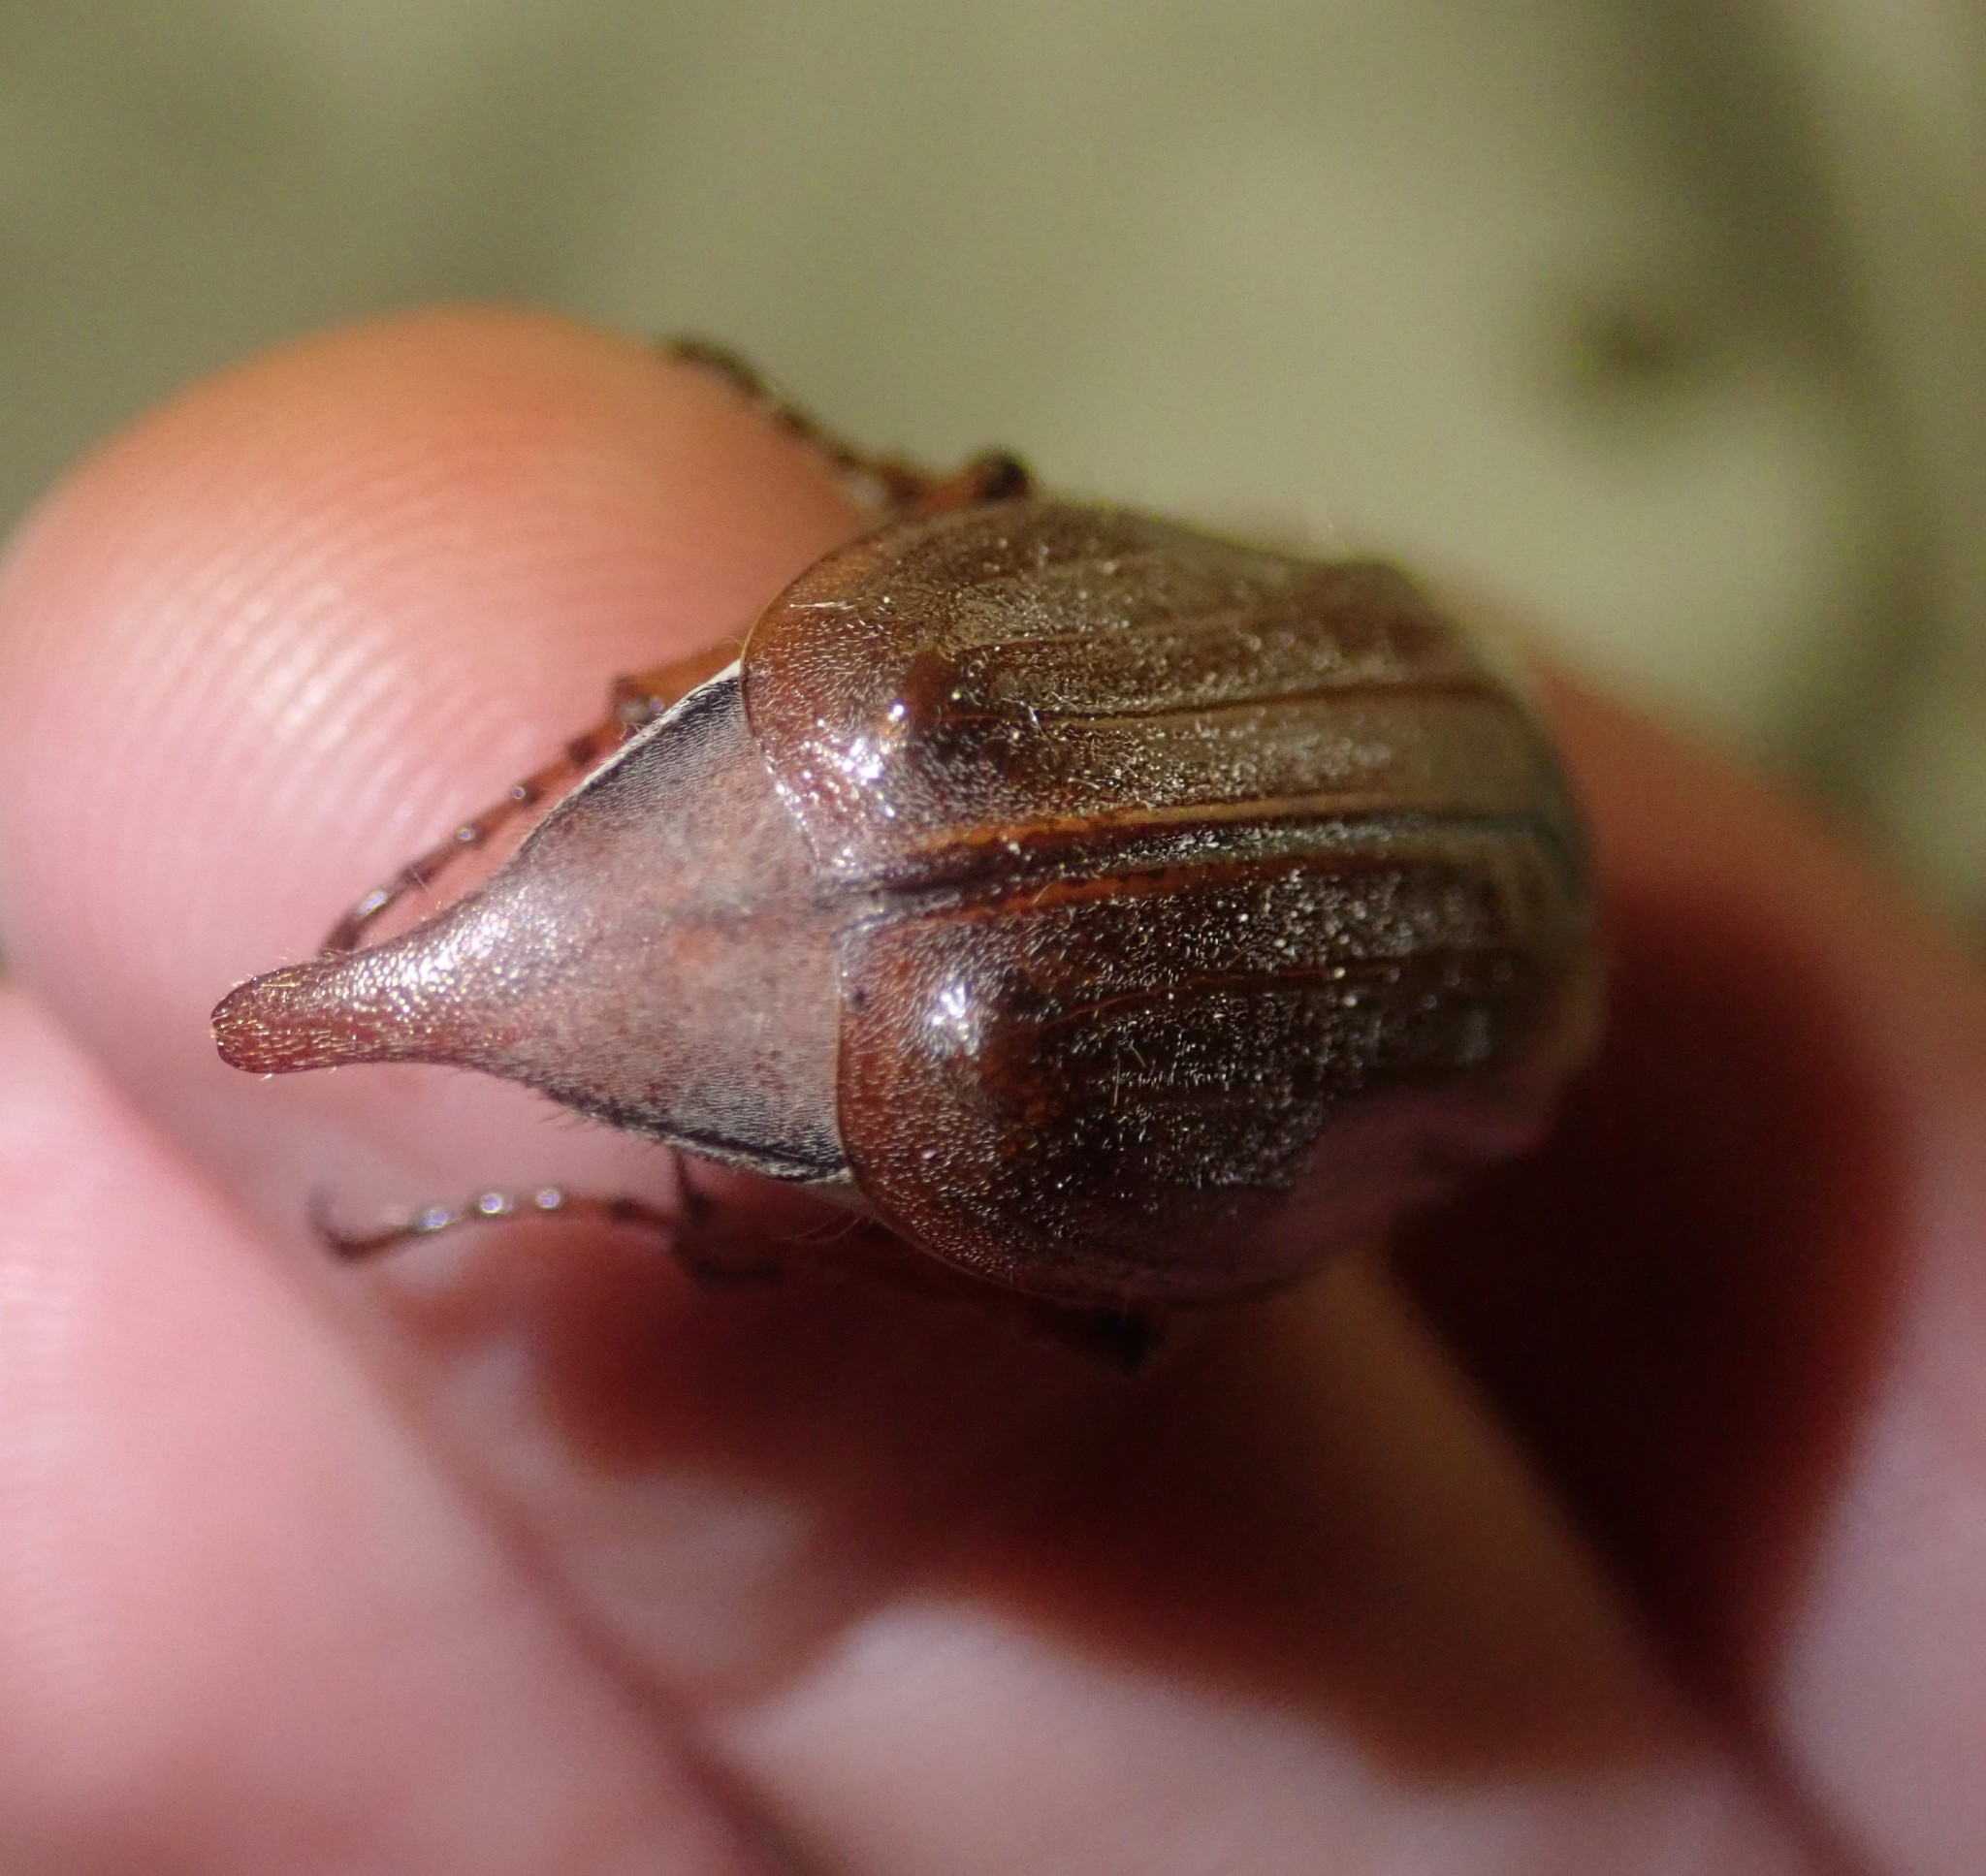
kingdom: Animalia
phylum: Arthropoda
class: Insecta
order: Coleoptera
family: Scarabaeidae
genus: Melolontha
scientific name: Melolontha melolontha
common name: Cockchafer maybeetle
